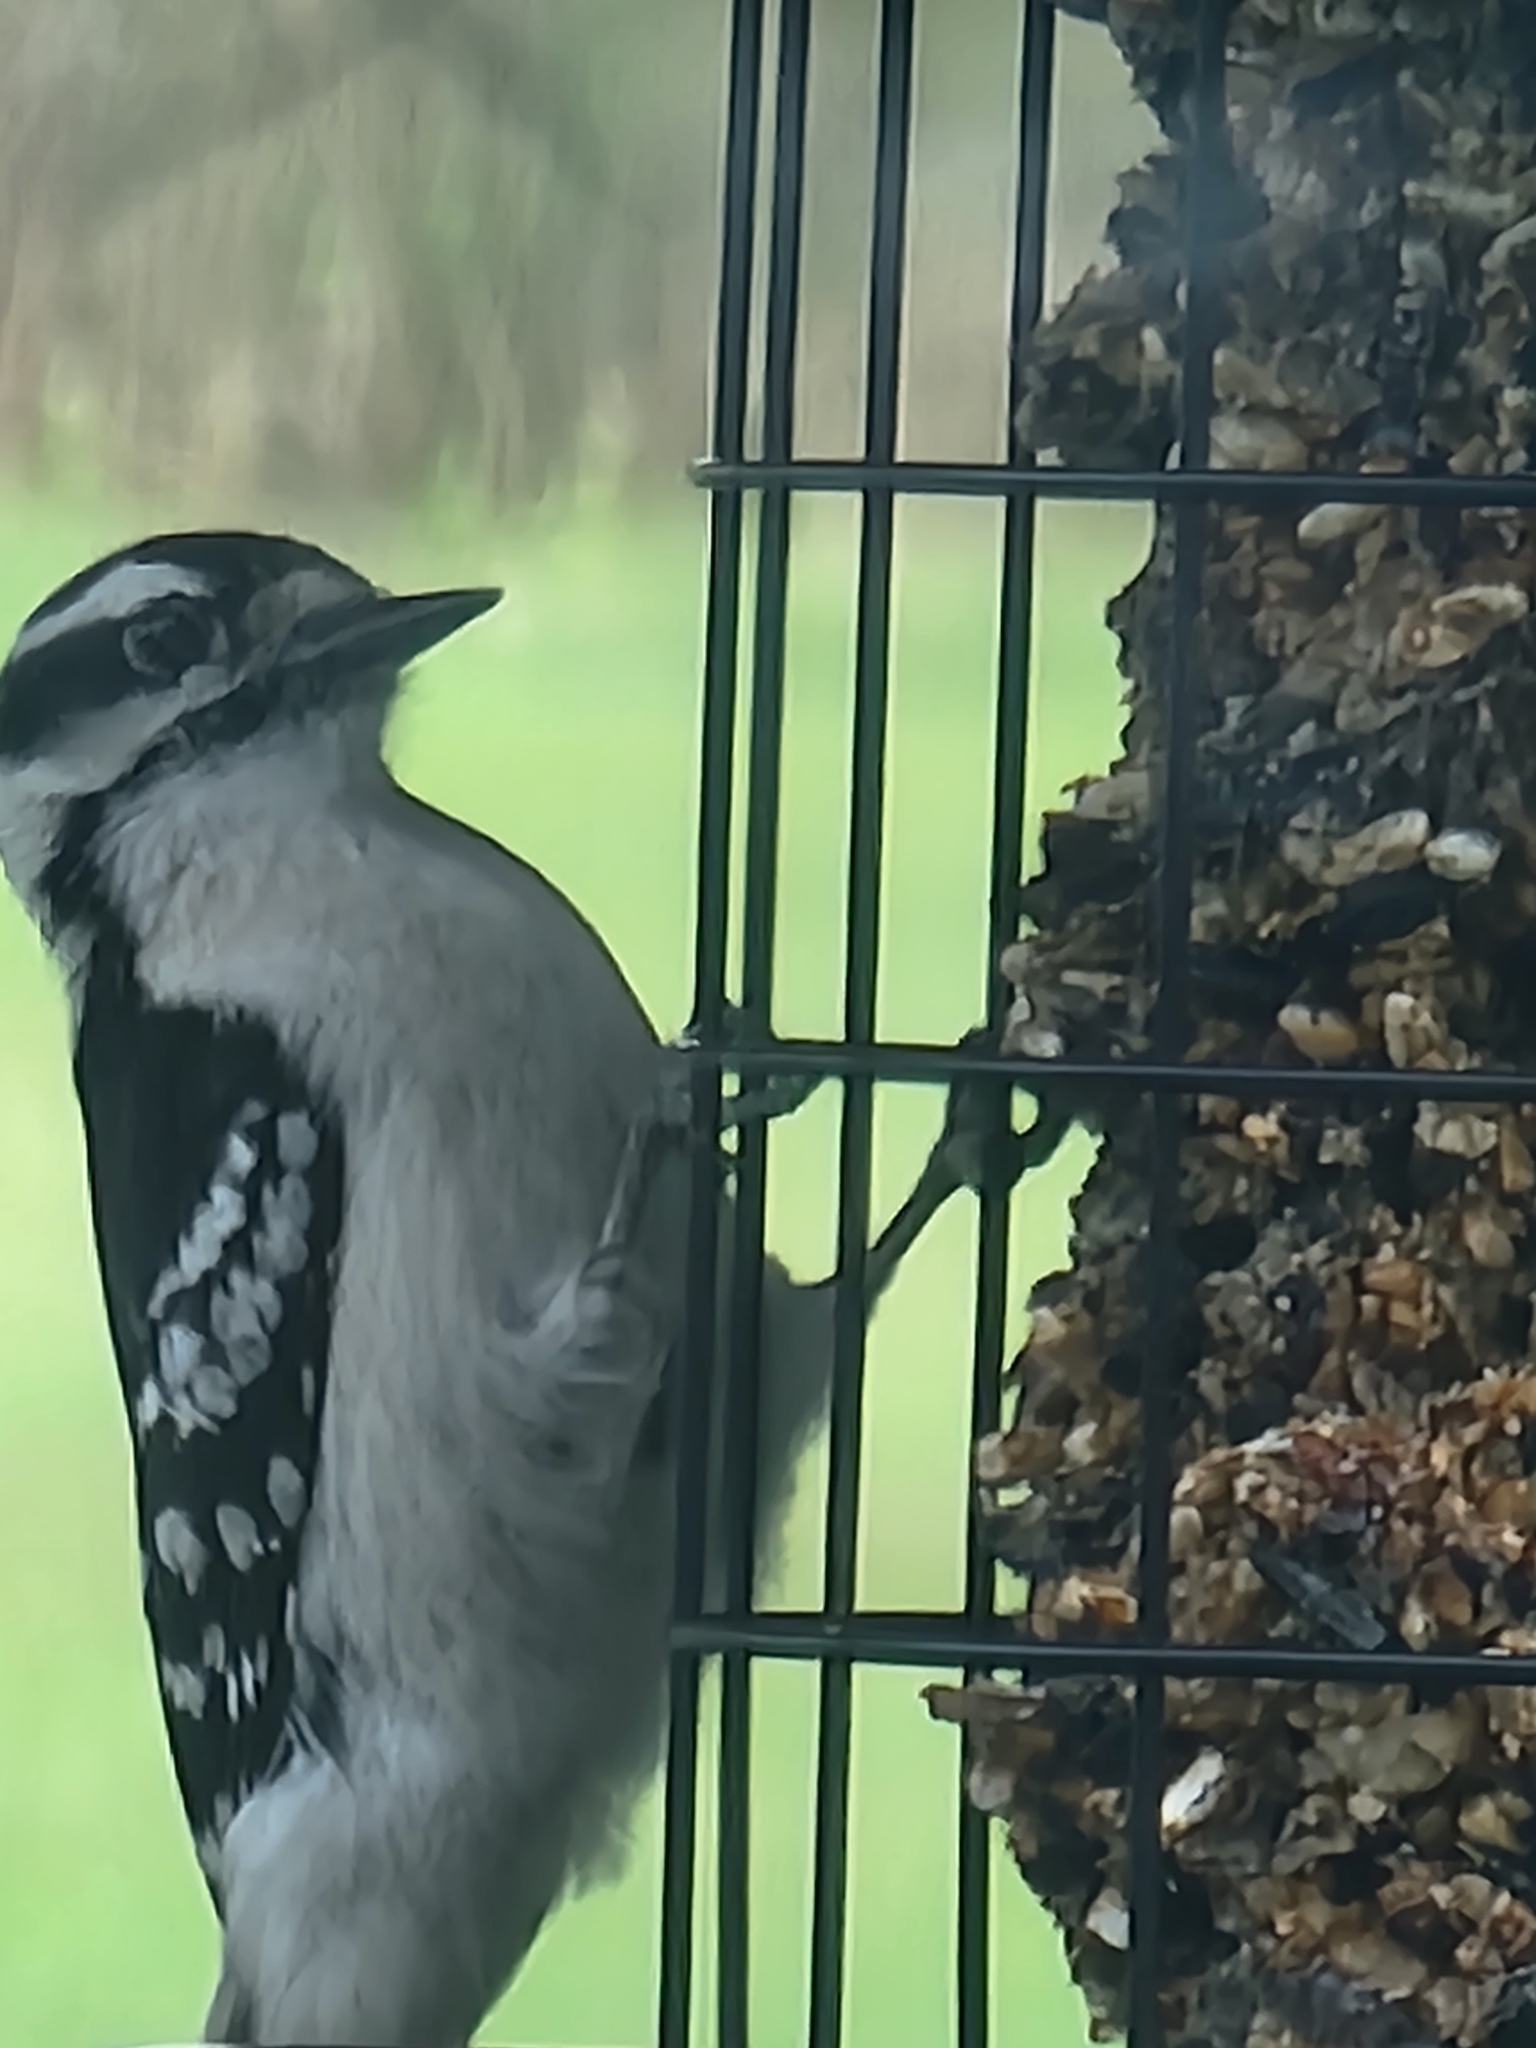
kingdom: Animalia
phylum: Chordata
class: Aves
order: Piciformes
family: Picidae
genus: Dryobates
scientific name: Dryobates pubescens
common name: Downy woodpecker
